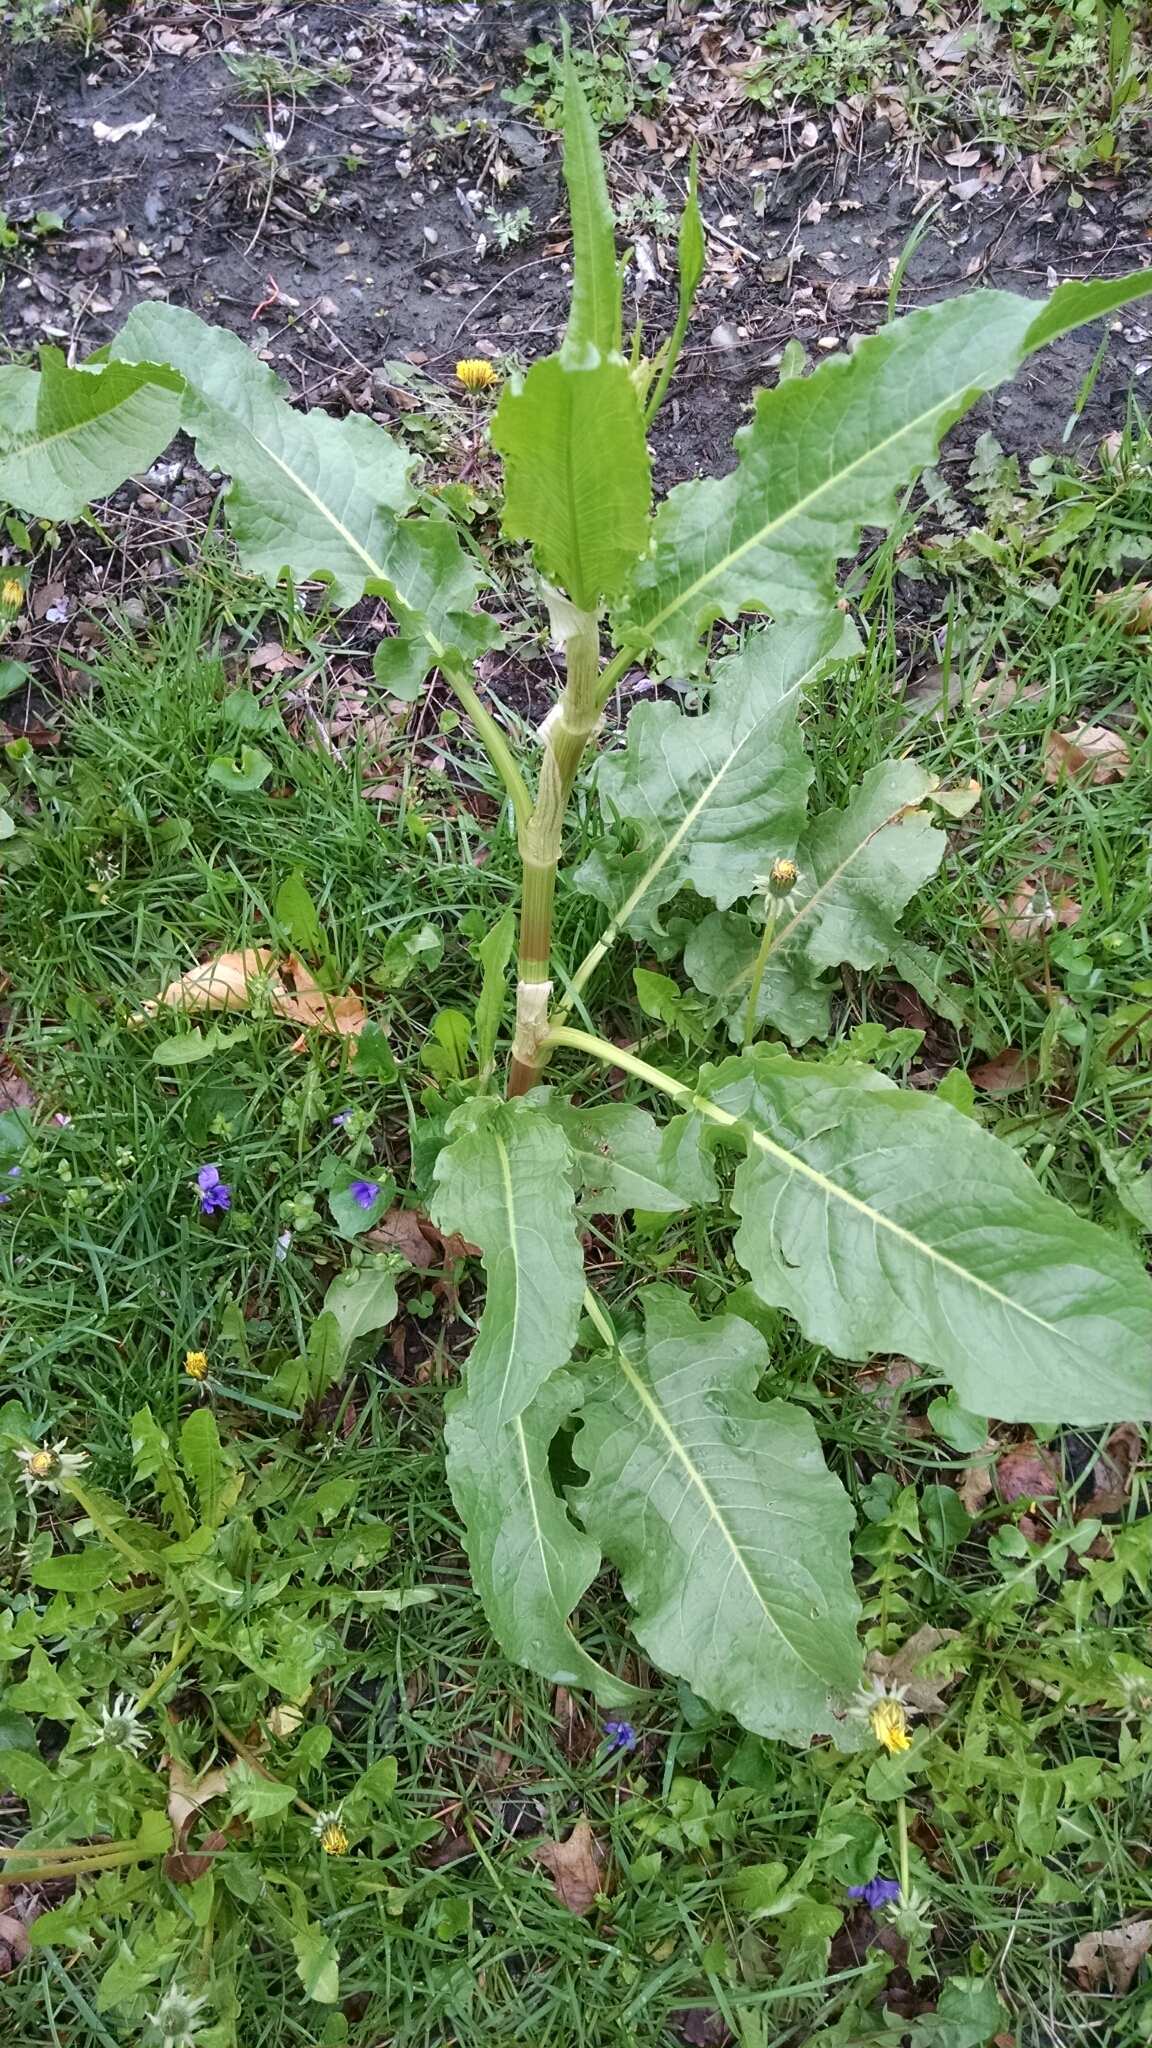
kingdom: Plantae
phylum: Tracheophyta
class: Magnoliopsida
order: Caryophyllales
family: Polygonaceae
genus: Rumex
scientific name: Rumex crispus
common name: Curled dock
